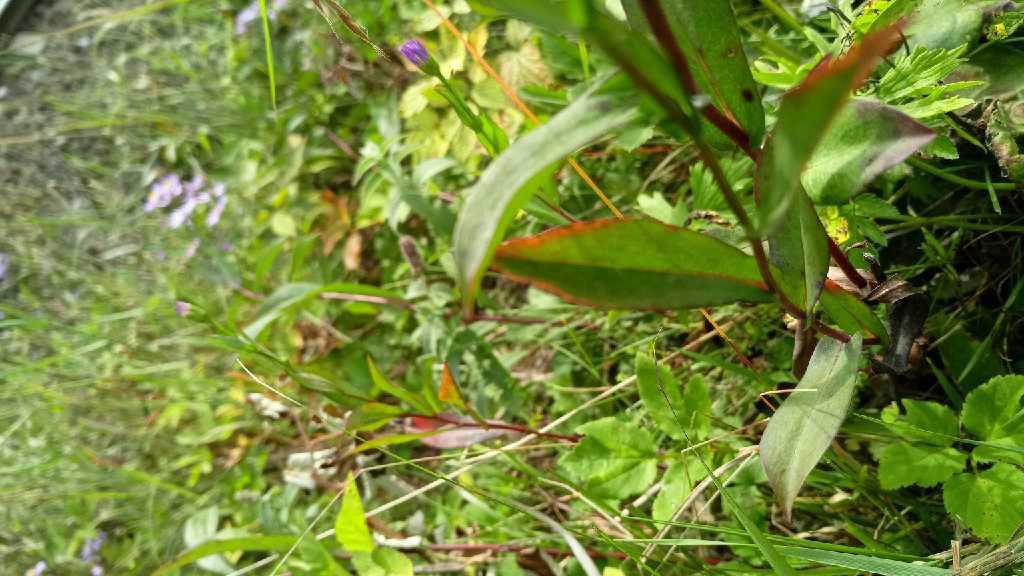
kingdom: Plantae
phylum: Tracheophyta
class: Magnoliopsida
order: Asterales
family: Asteraceae
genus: Symphyotrichum
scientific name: Symphyotrichum laeve
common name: Glaucous aster
